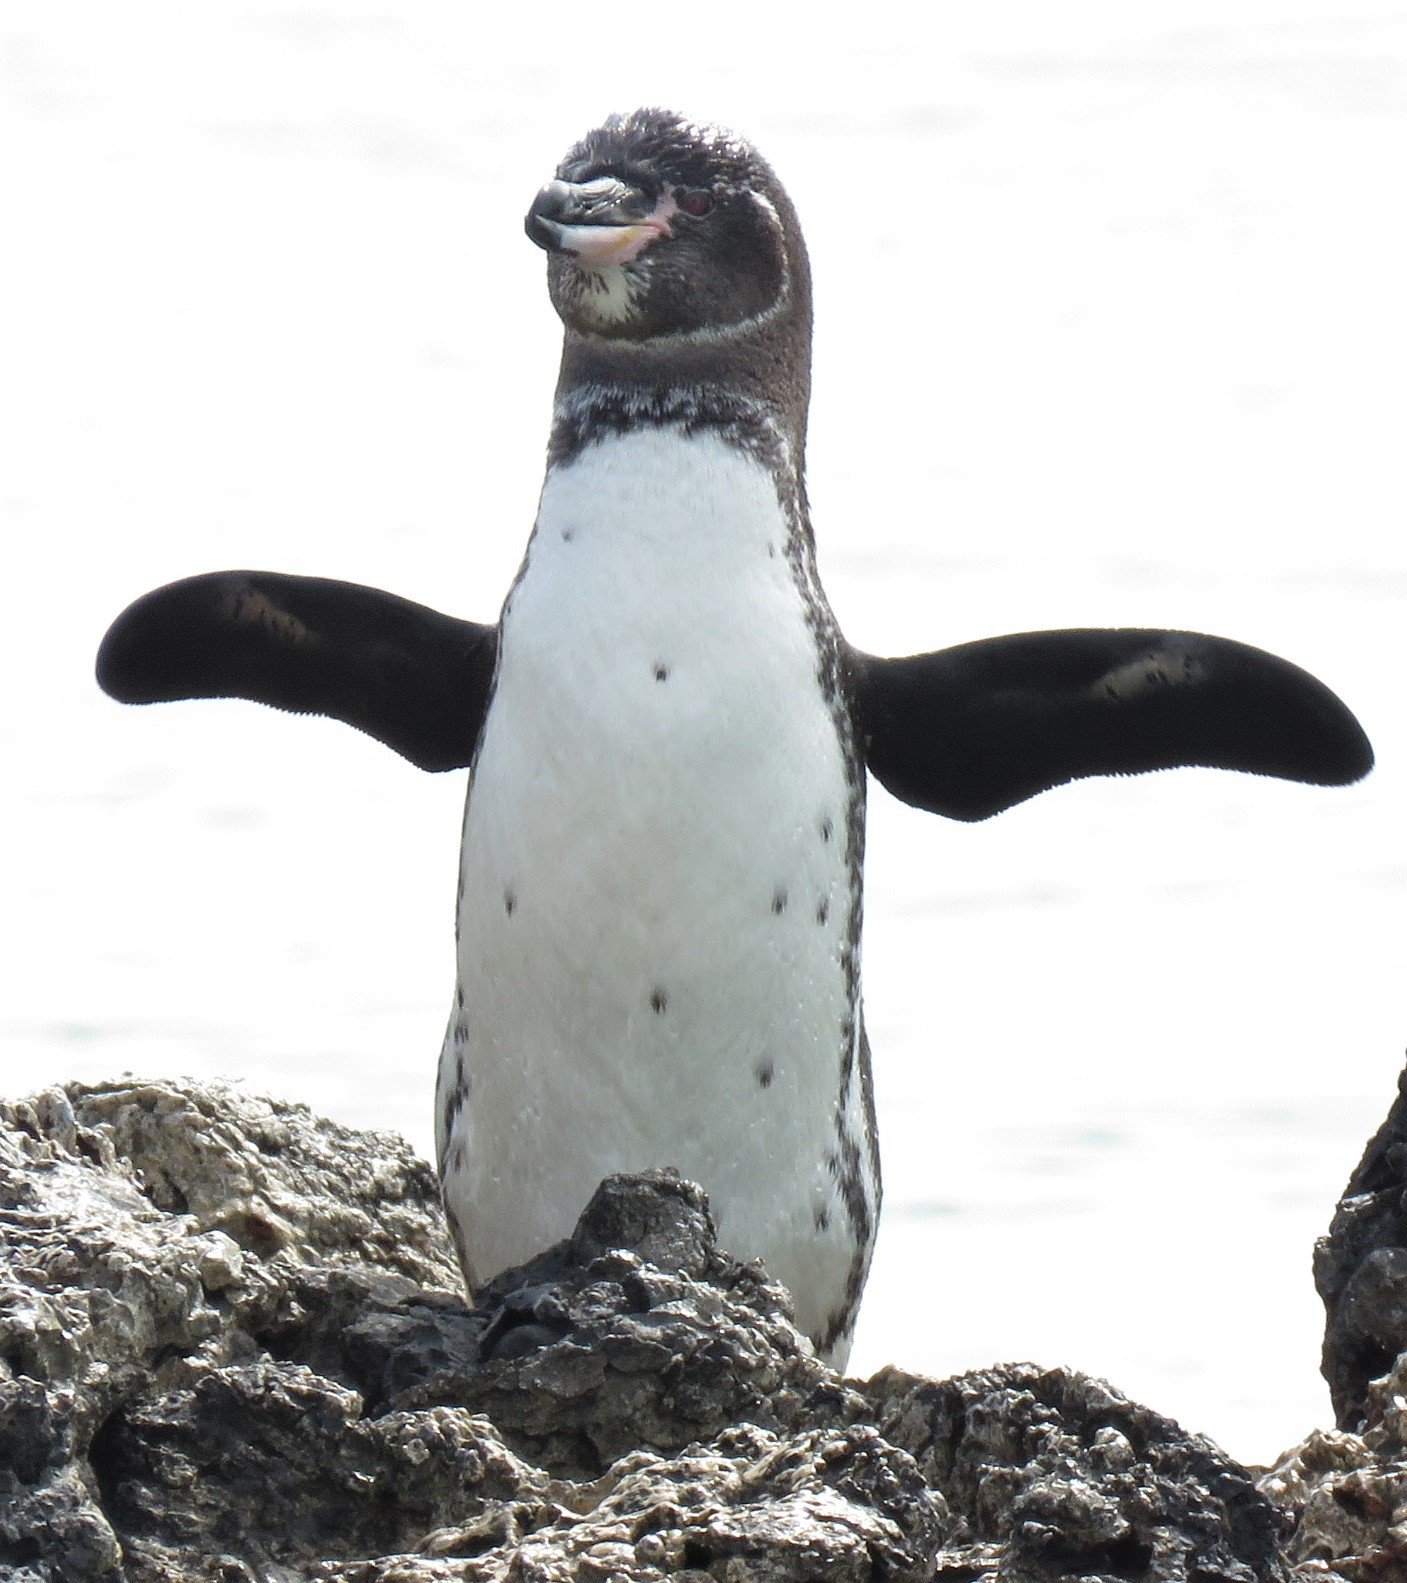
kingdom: Animalia
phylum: Chordata
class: Aves
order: Sphenisciformes
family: Spheniscidae
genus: Spheniscus
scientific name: Spheniscus mendiculus
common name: Galapagos penguin
